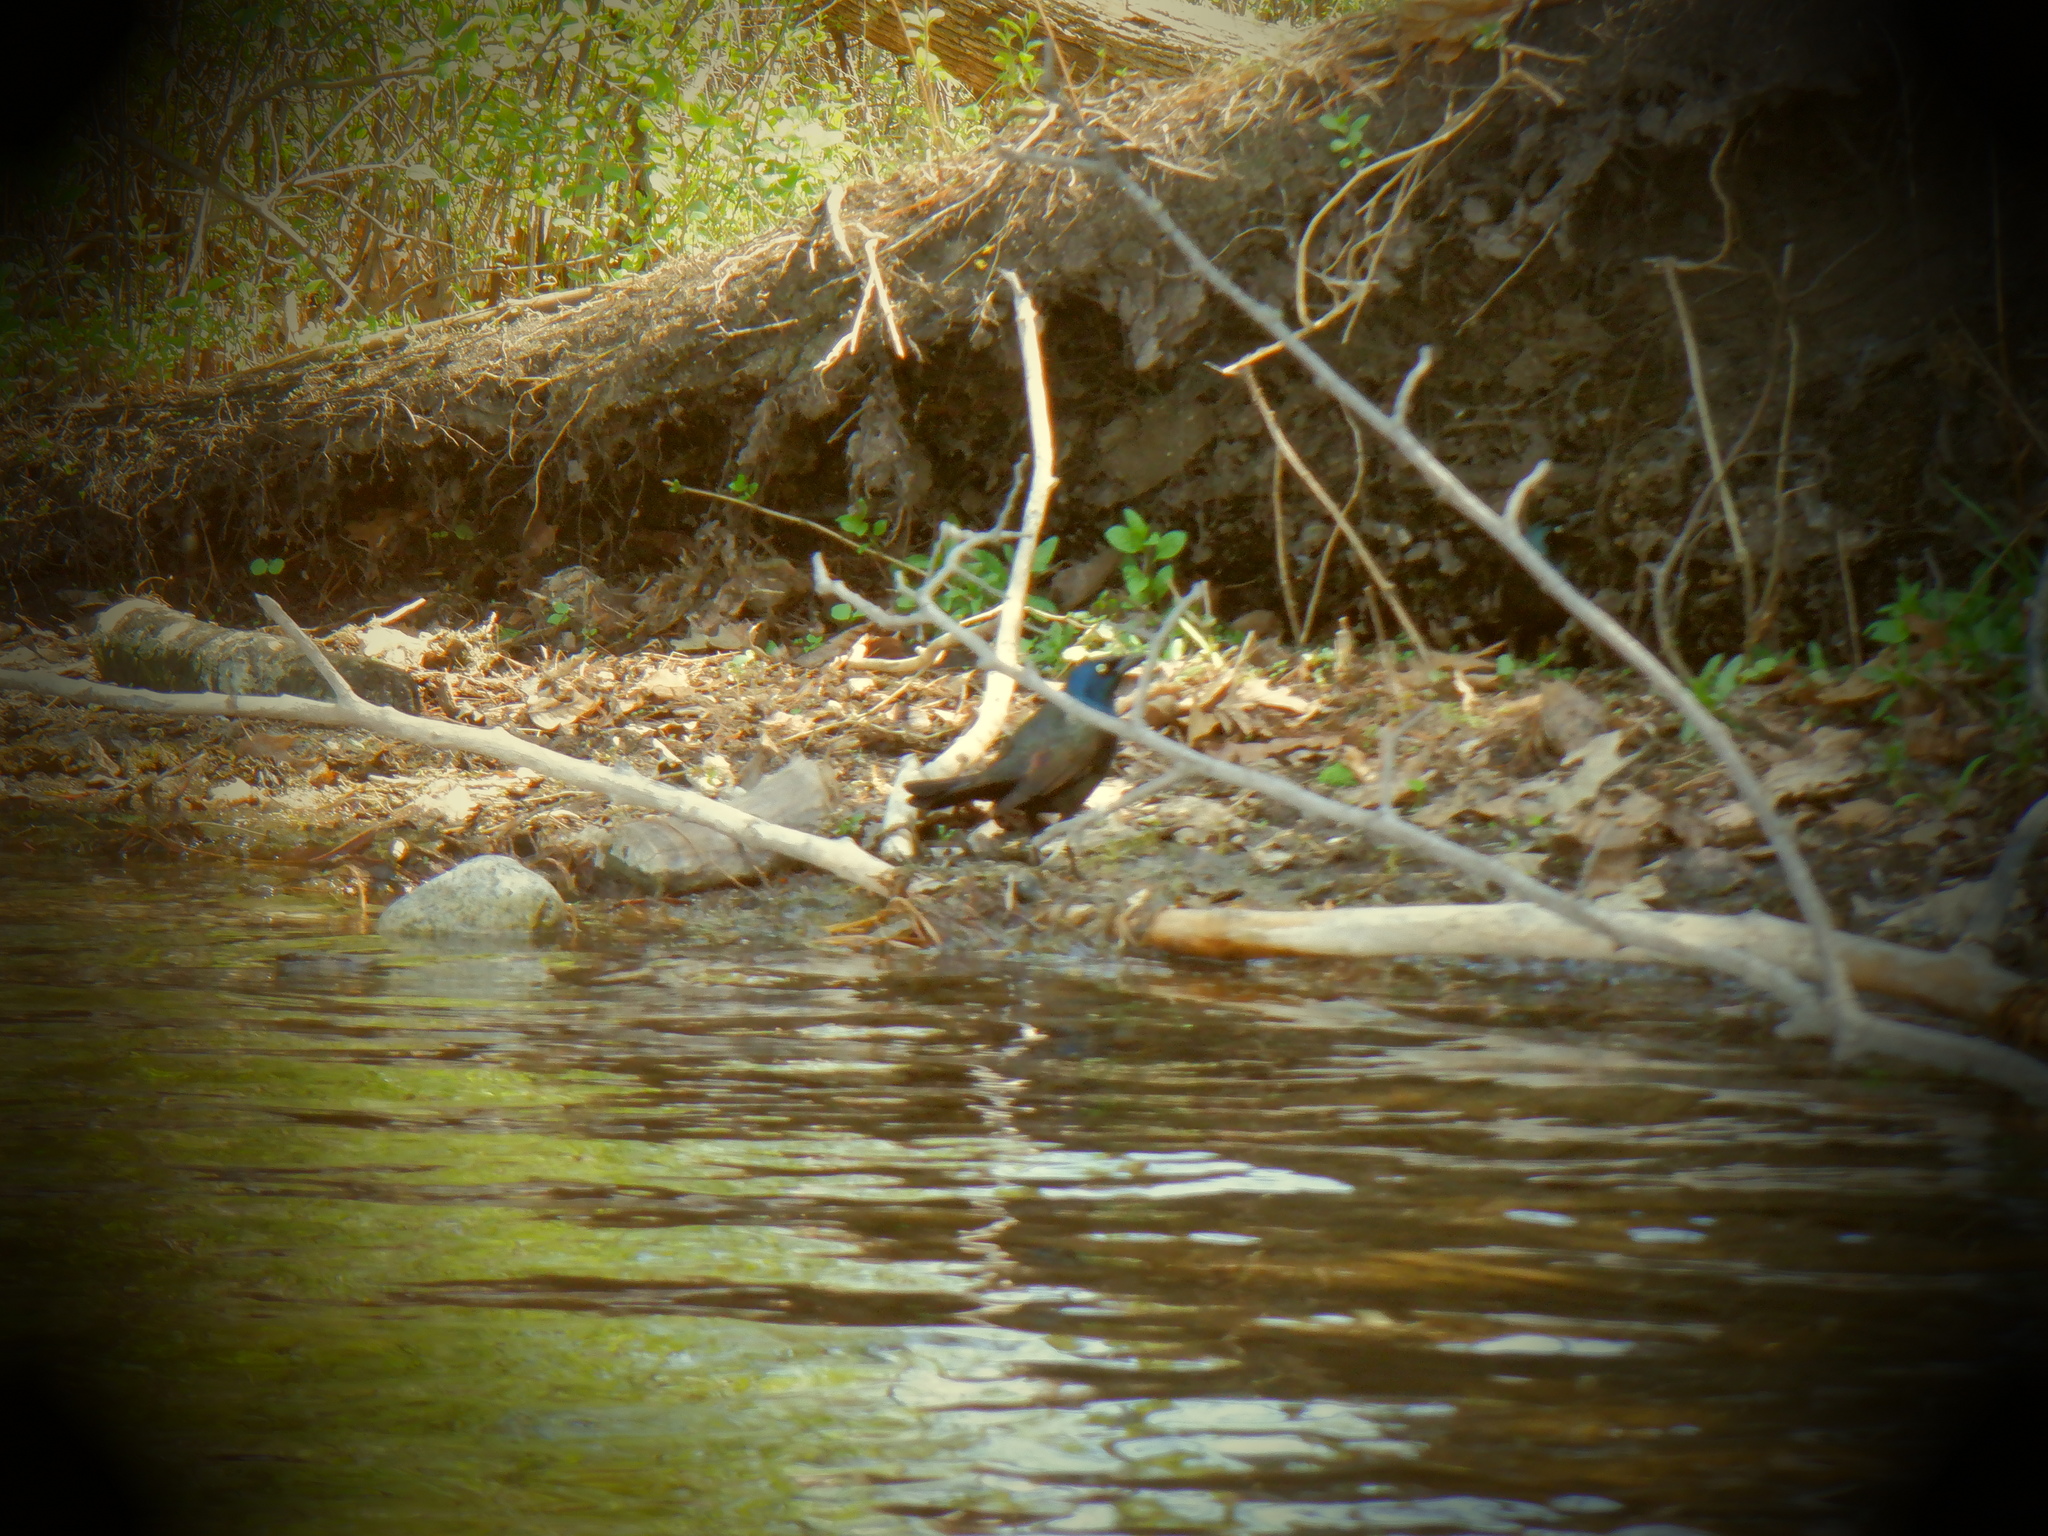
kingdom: Animalia
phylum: Chordata
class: Aves
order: Passeriformes
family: Icteridae
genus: Quiscalus
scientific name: Quiscalus quiscula
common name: Common grackle
